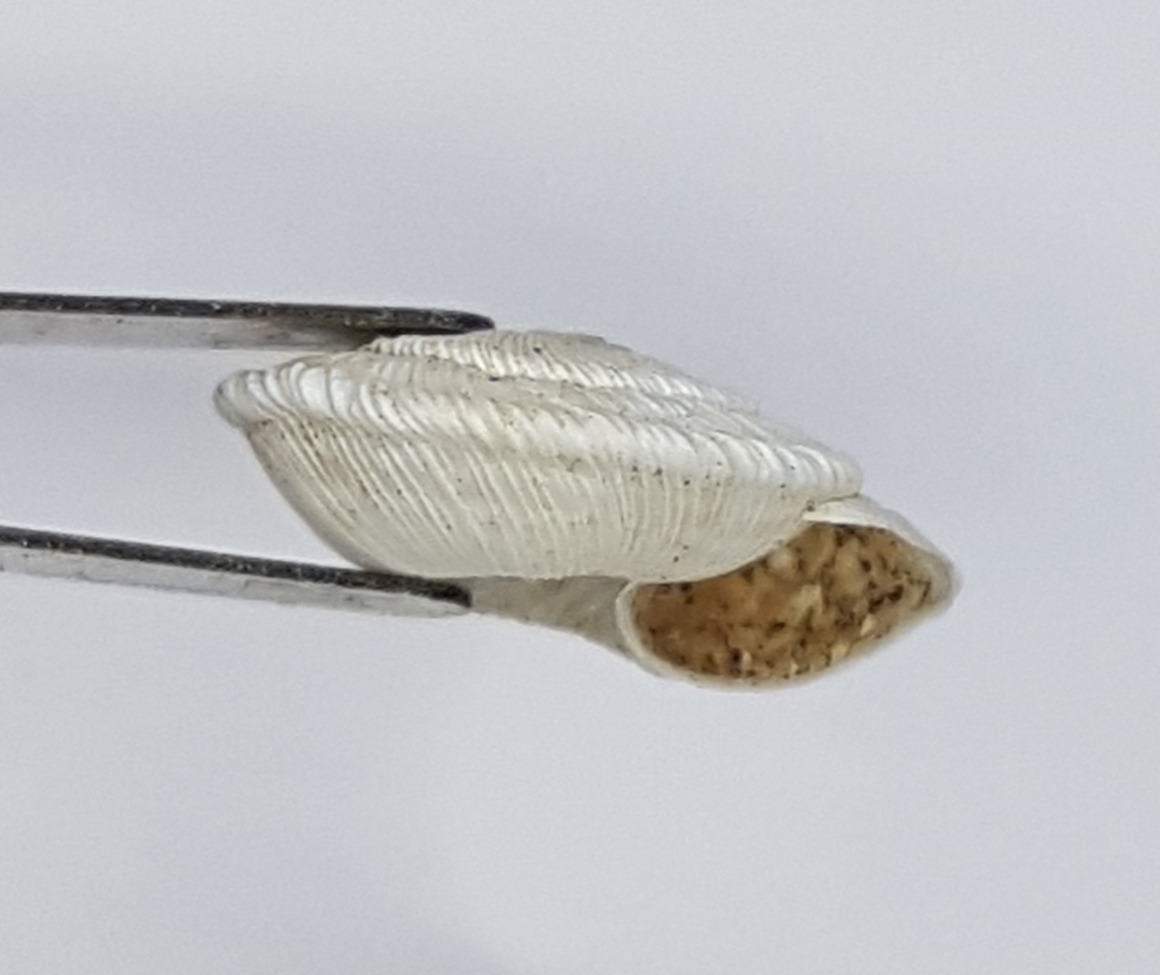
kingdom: Animalia
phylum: Mollusca
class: Gastropoda
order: Stylommatophora
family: Geomitridae
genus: Xeroplexa
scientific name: Xeroplexa setubalensis
